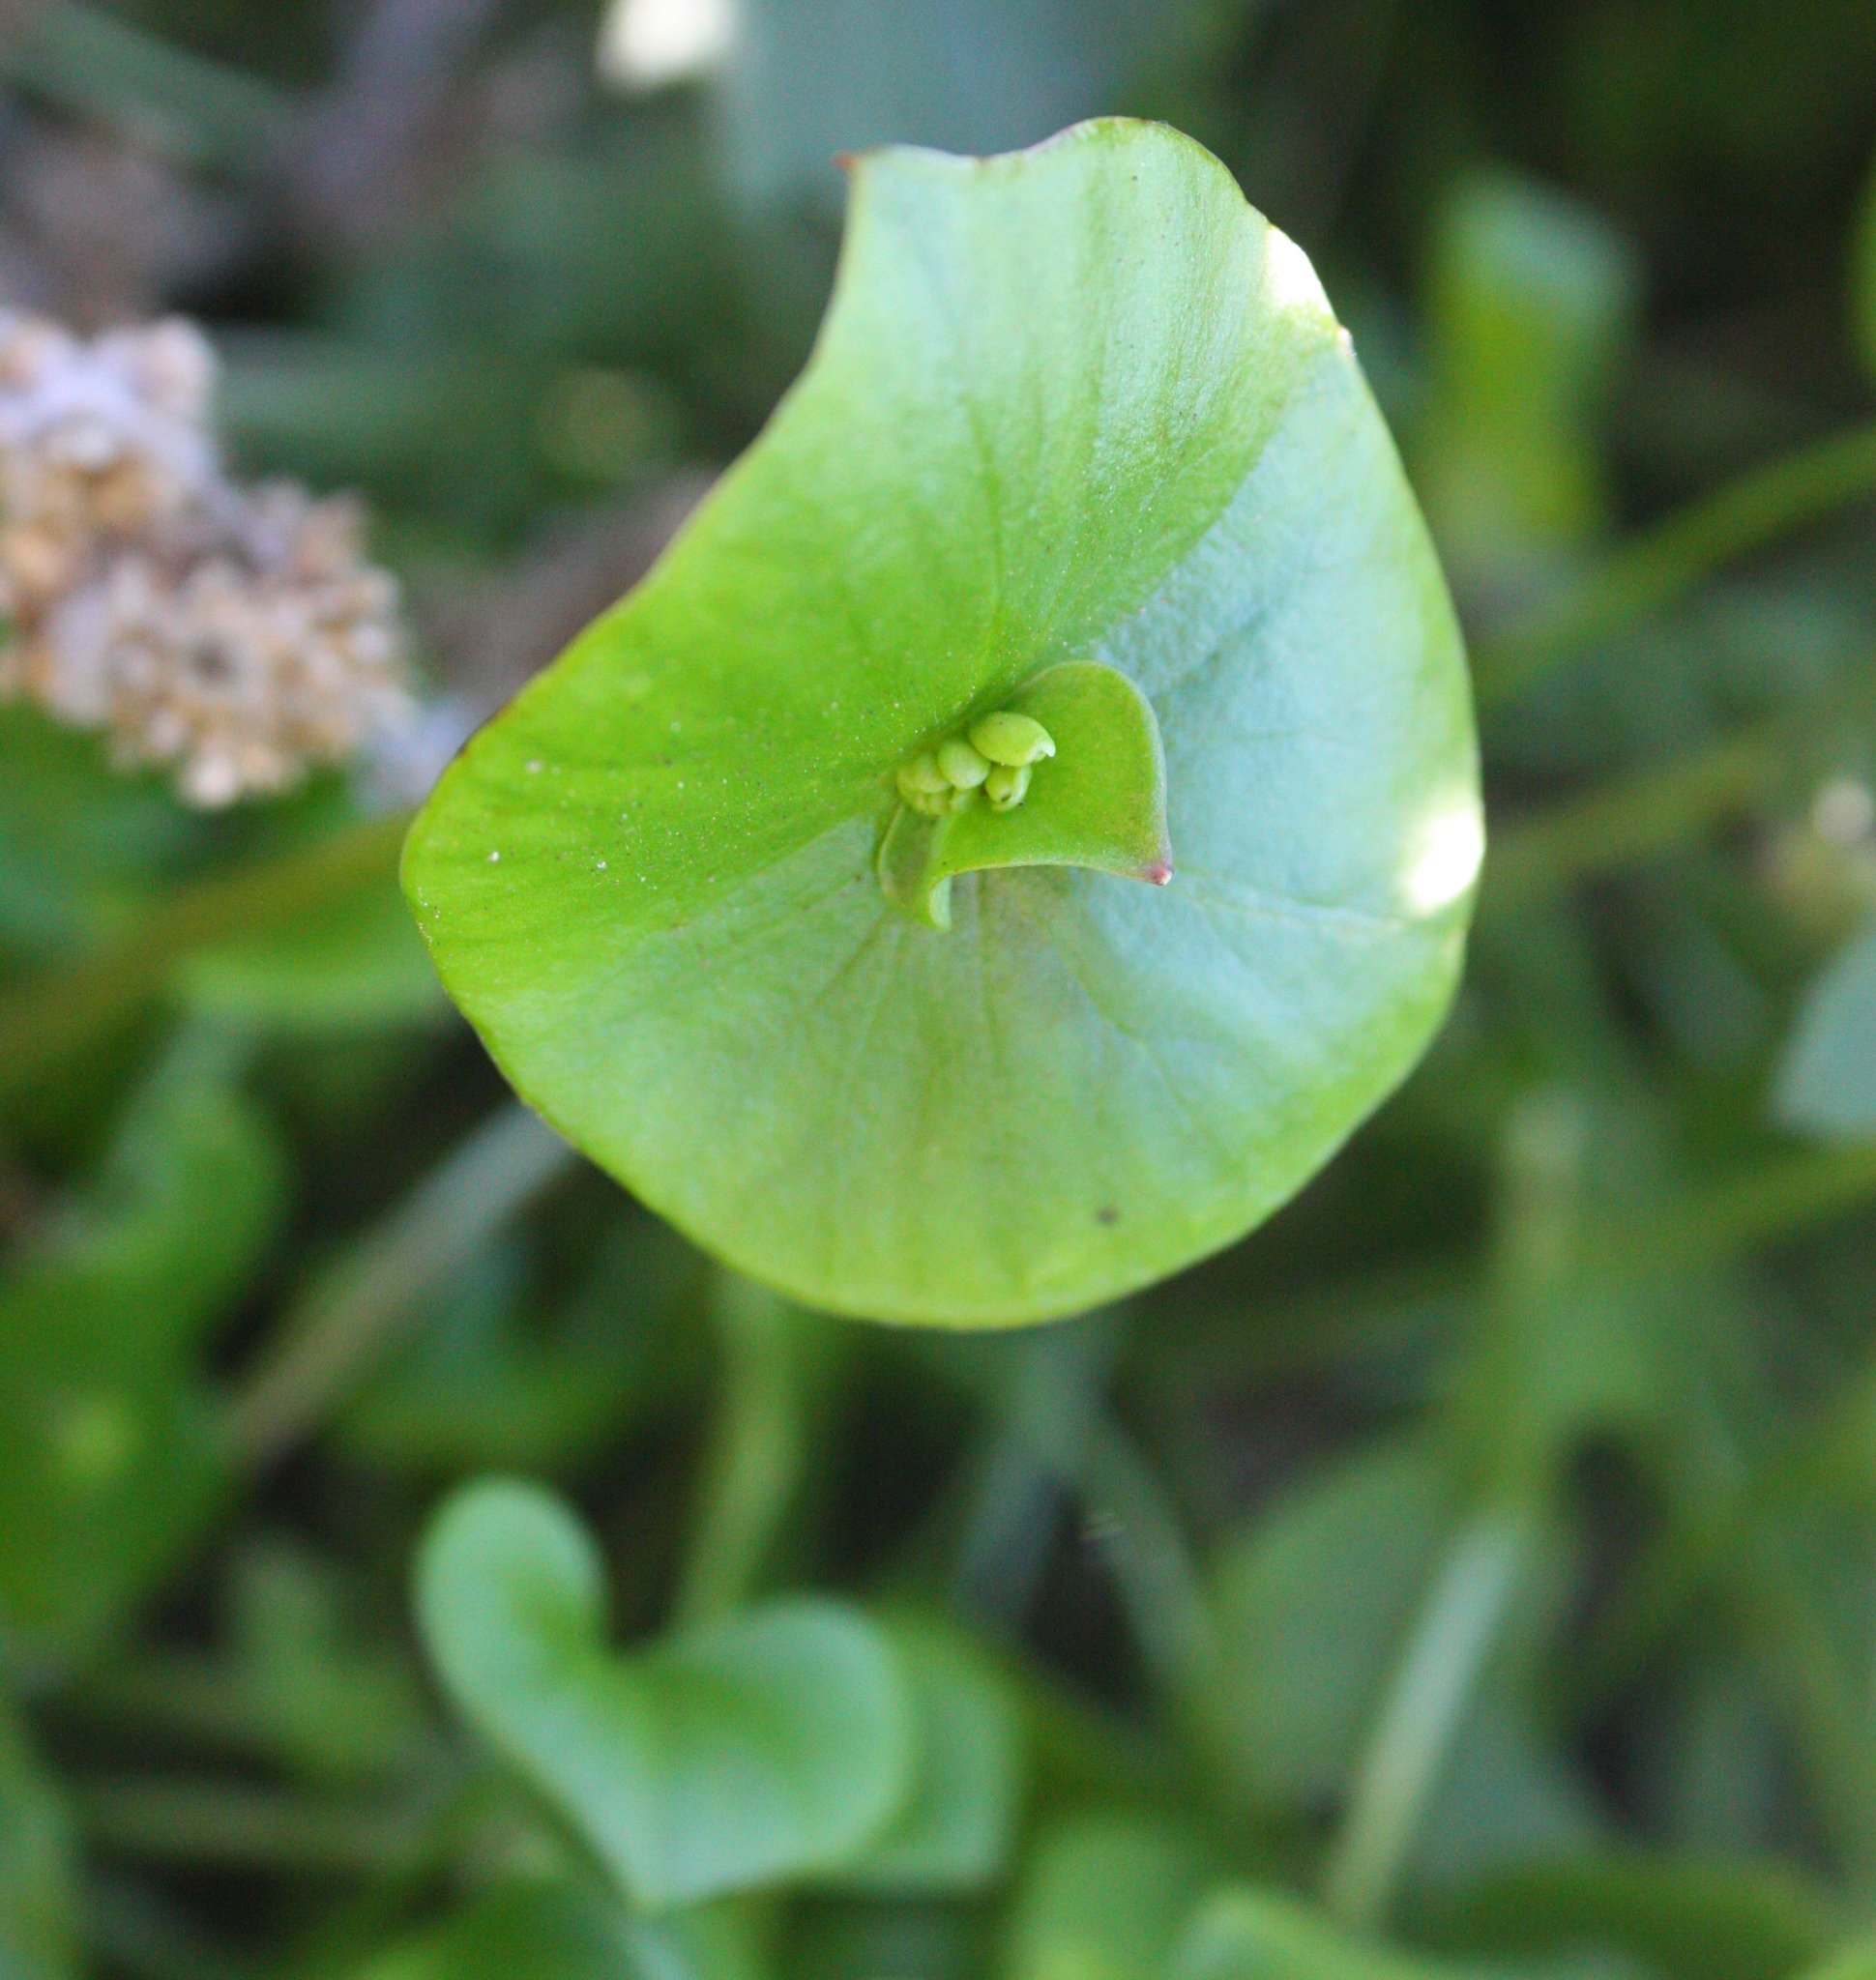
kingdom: Plantae
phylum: Tracheophyta
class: Magnoliopsida
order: Caryophyllales
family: Montiaceae
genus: Claytonia
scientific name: Claytonia perfoliata
